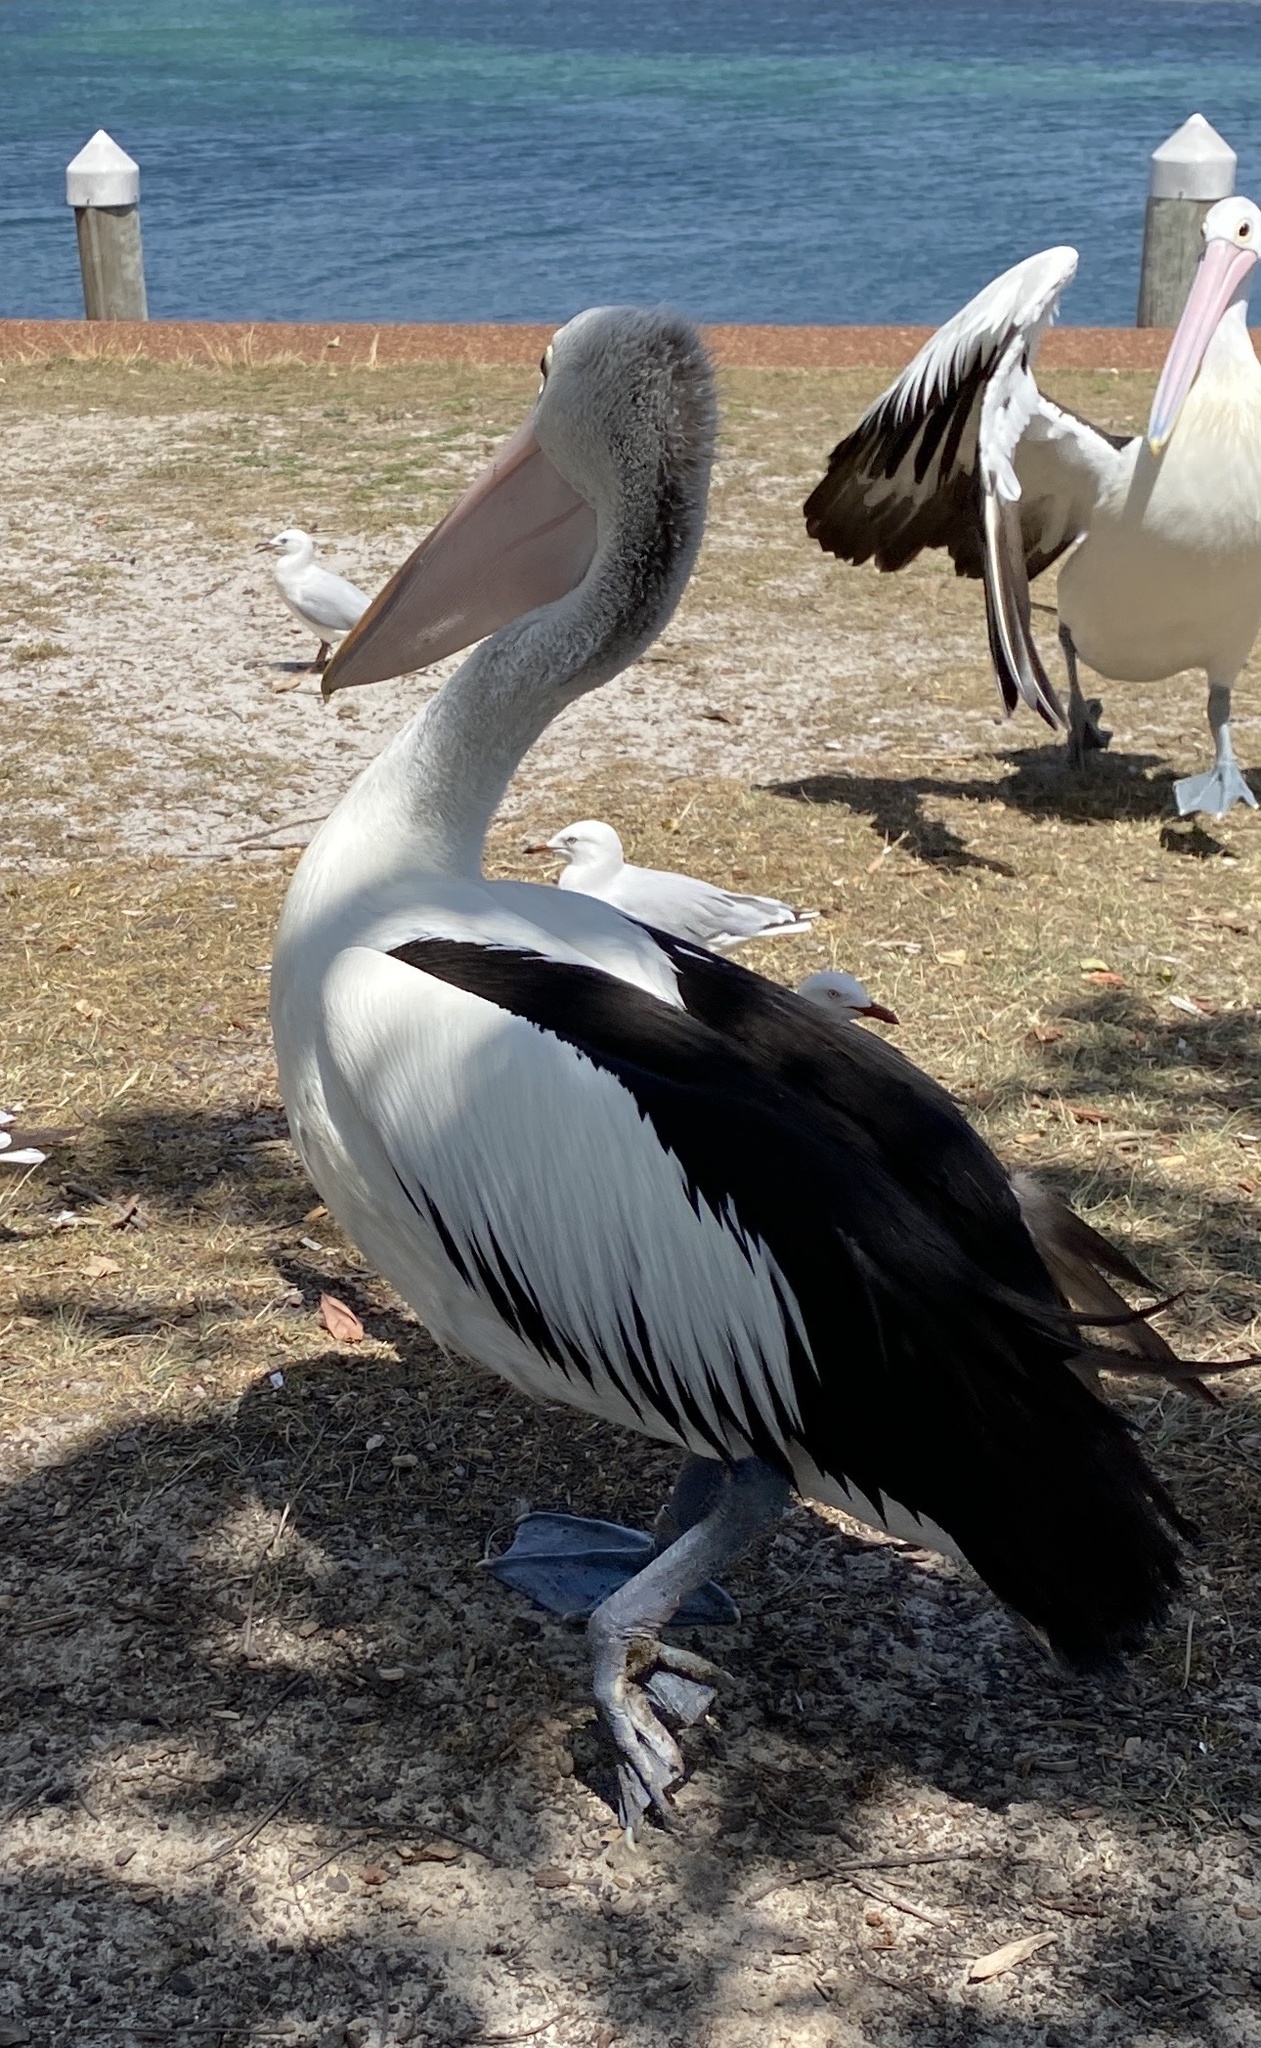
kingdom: Animalia
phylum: Chordata
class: Aves
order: Pelecaniformes
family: Pelecanidae
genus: Pelecanus
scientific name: Pelecanus conspicillatus
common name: Australian pelican
